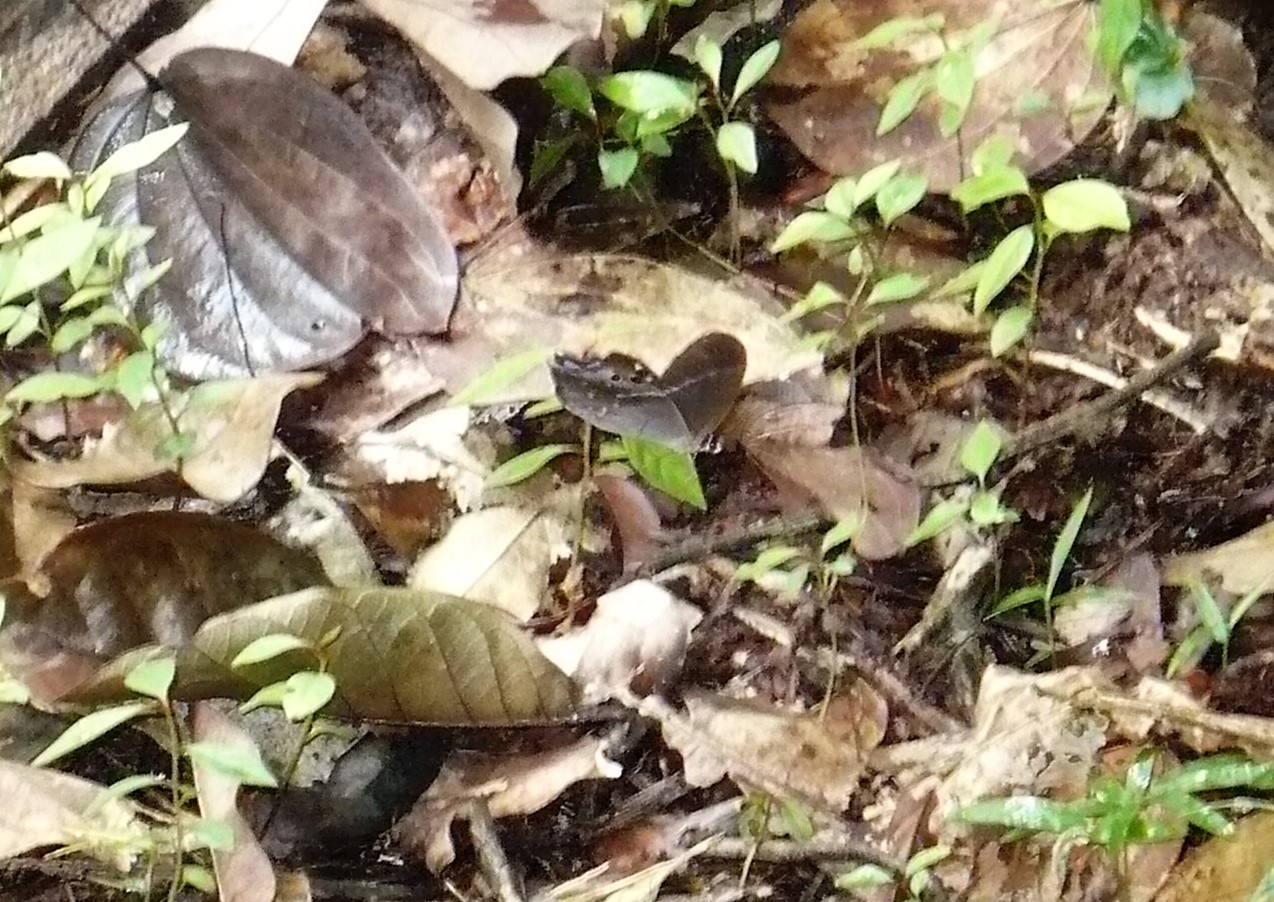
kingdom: Animalia
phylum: Arthropoda
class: Insecta
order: Lepidoptera
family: Nymphalidae
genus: Pierella
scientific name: Pierella dracontis
